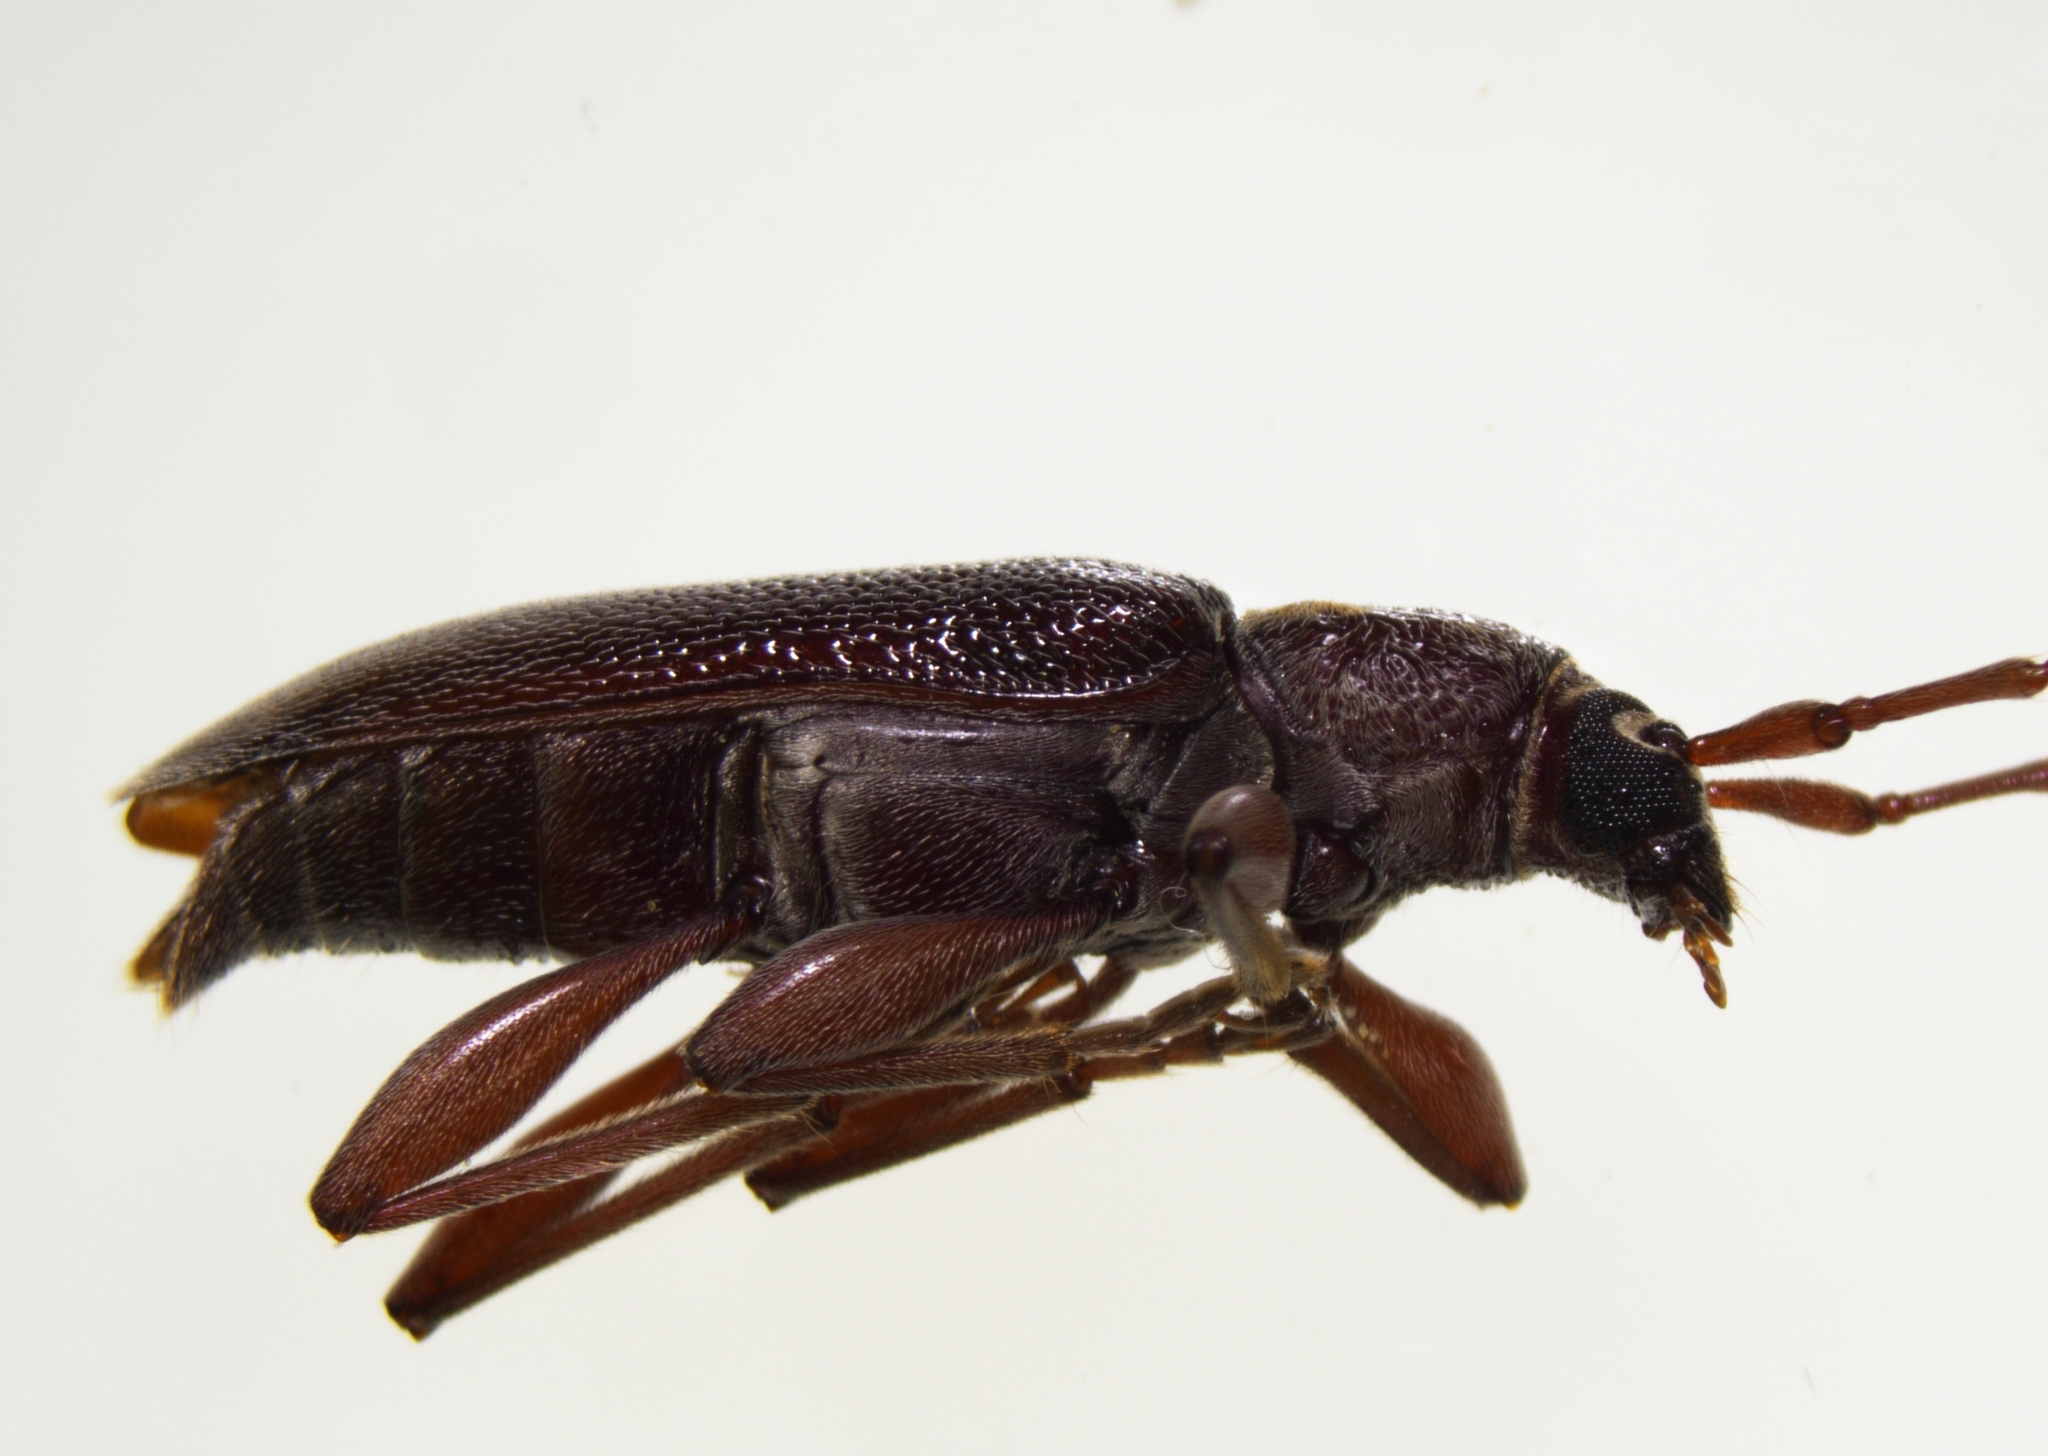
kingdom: Animalia
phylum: Arthropoda
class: Insecta
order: Coleoptera
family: Cerambycidae
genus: Ceresium
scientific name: Ceresium unicolor
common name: Citrus longhorn
